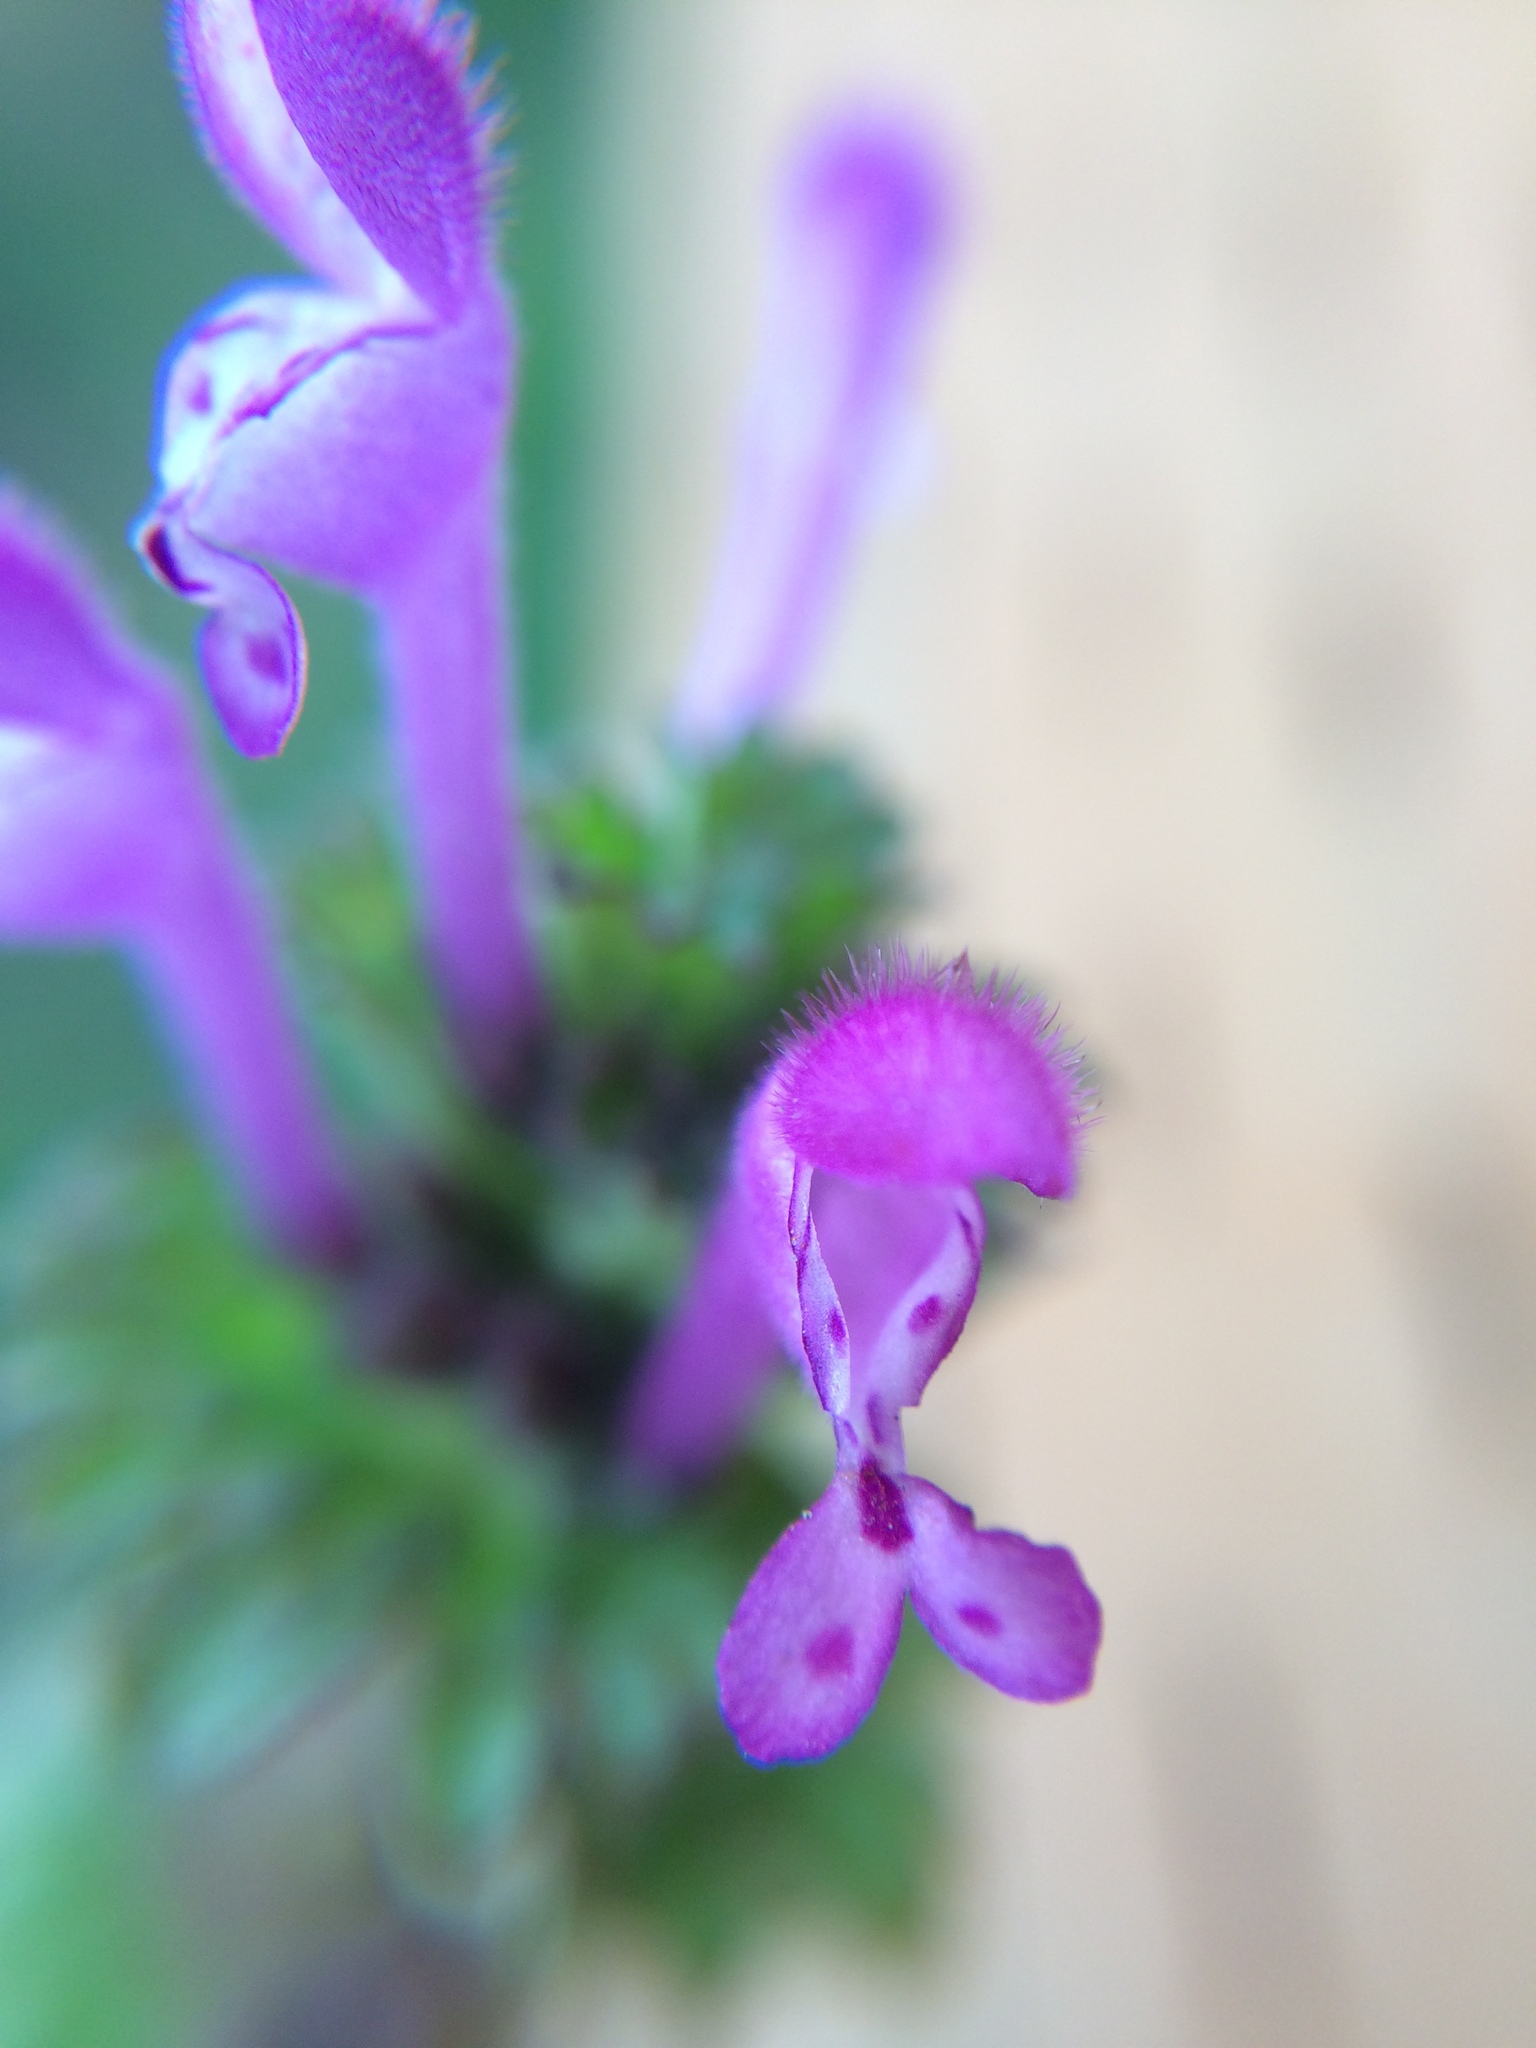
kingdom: Plantae
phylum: Tracheophyta
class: Magnoliopsida
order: Lamiales
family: Lamiaceae
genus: Lamium
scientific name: Lamium amplexicaule
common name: Henbit dead-nettle
